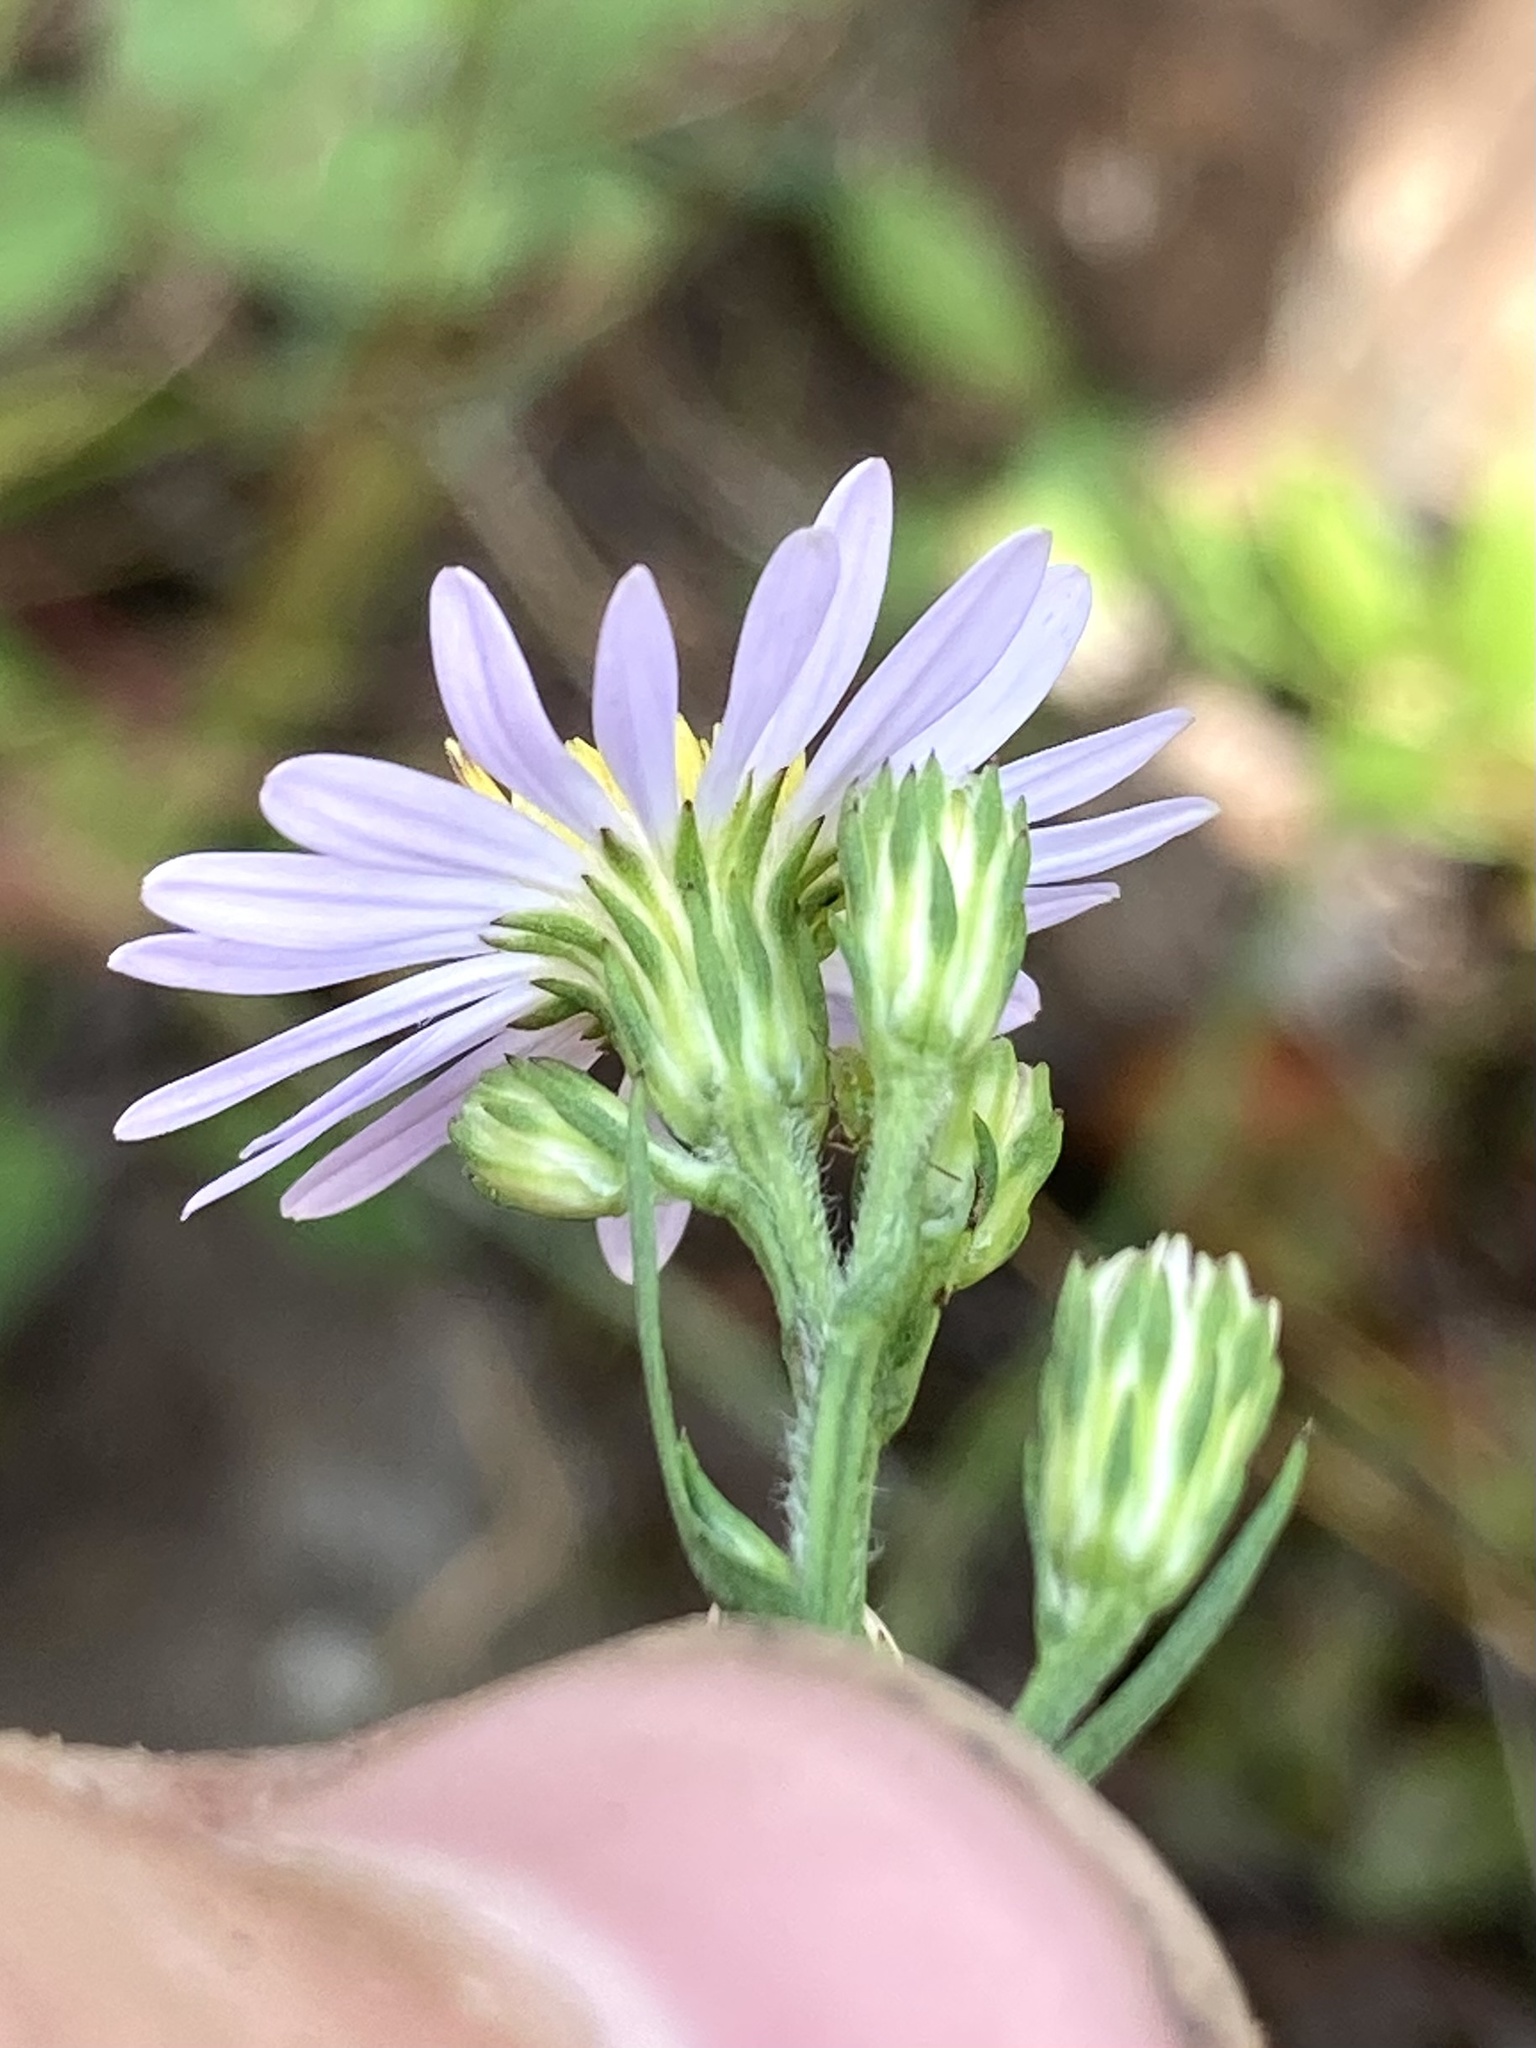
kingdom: Plantae
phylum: Tracheophyta
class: Magnoliopsida
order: Asterales
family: Asteraceae
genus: Symphyotrichum
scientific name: Symphyotrichum ciliolatum
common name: Fringed blue aster
